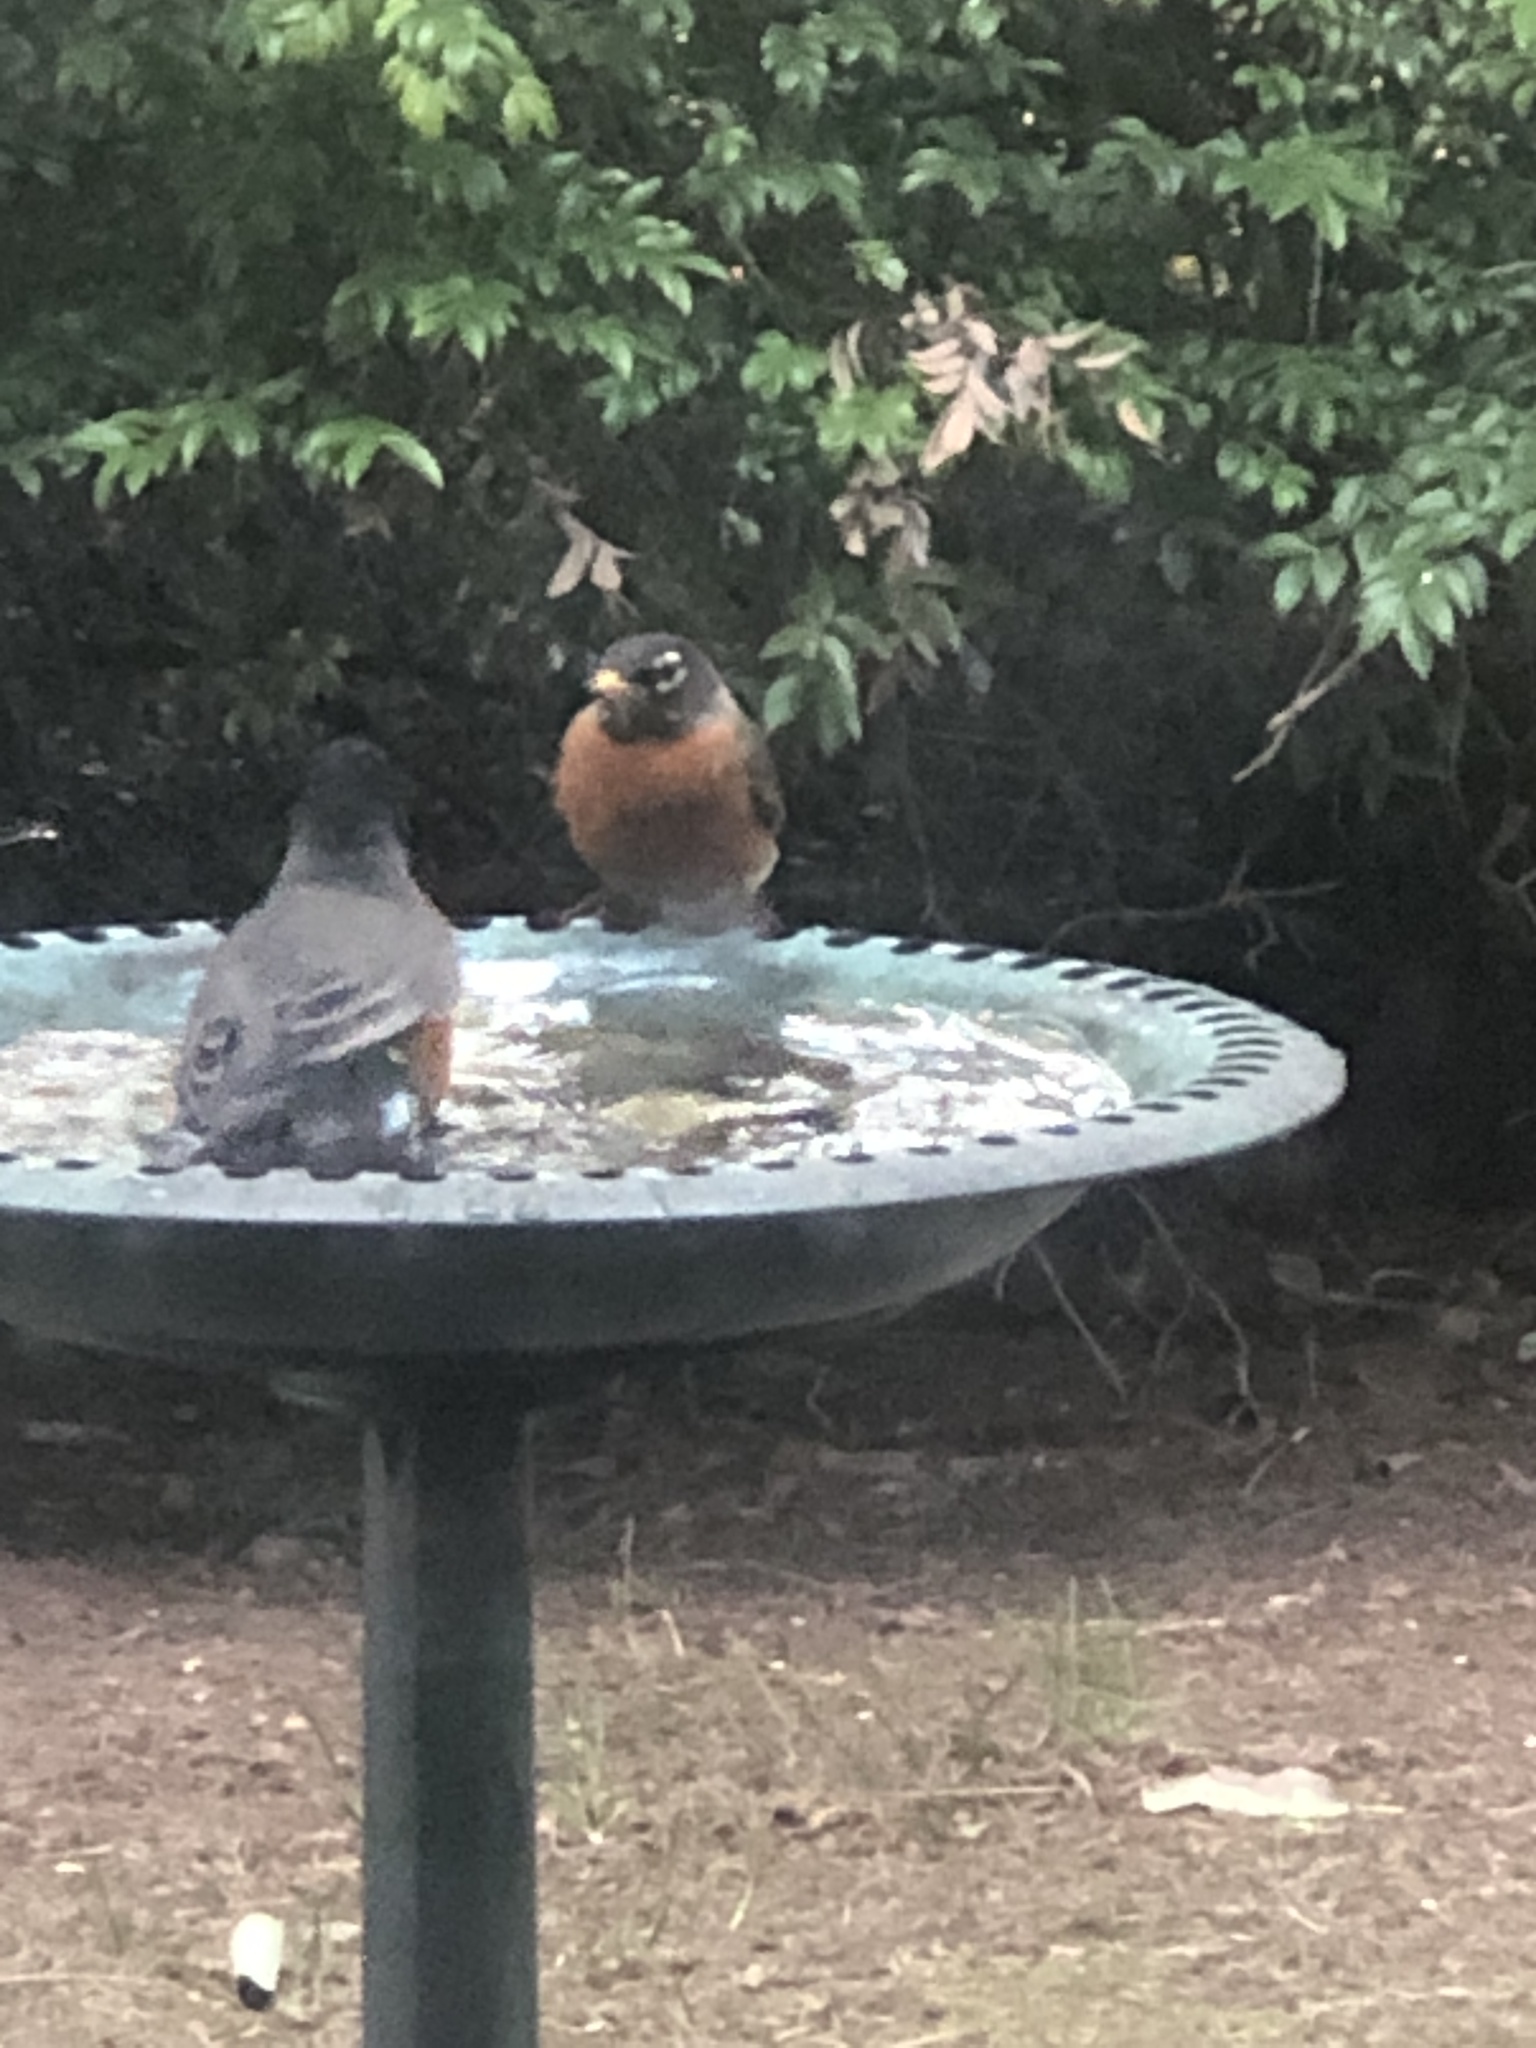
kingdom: Animalia
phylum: Chordata
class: Aves
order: Passeriformes
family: Turdidae
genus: Turdus
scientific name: Turdus migratorius
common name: American robin
